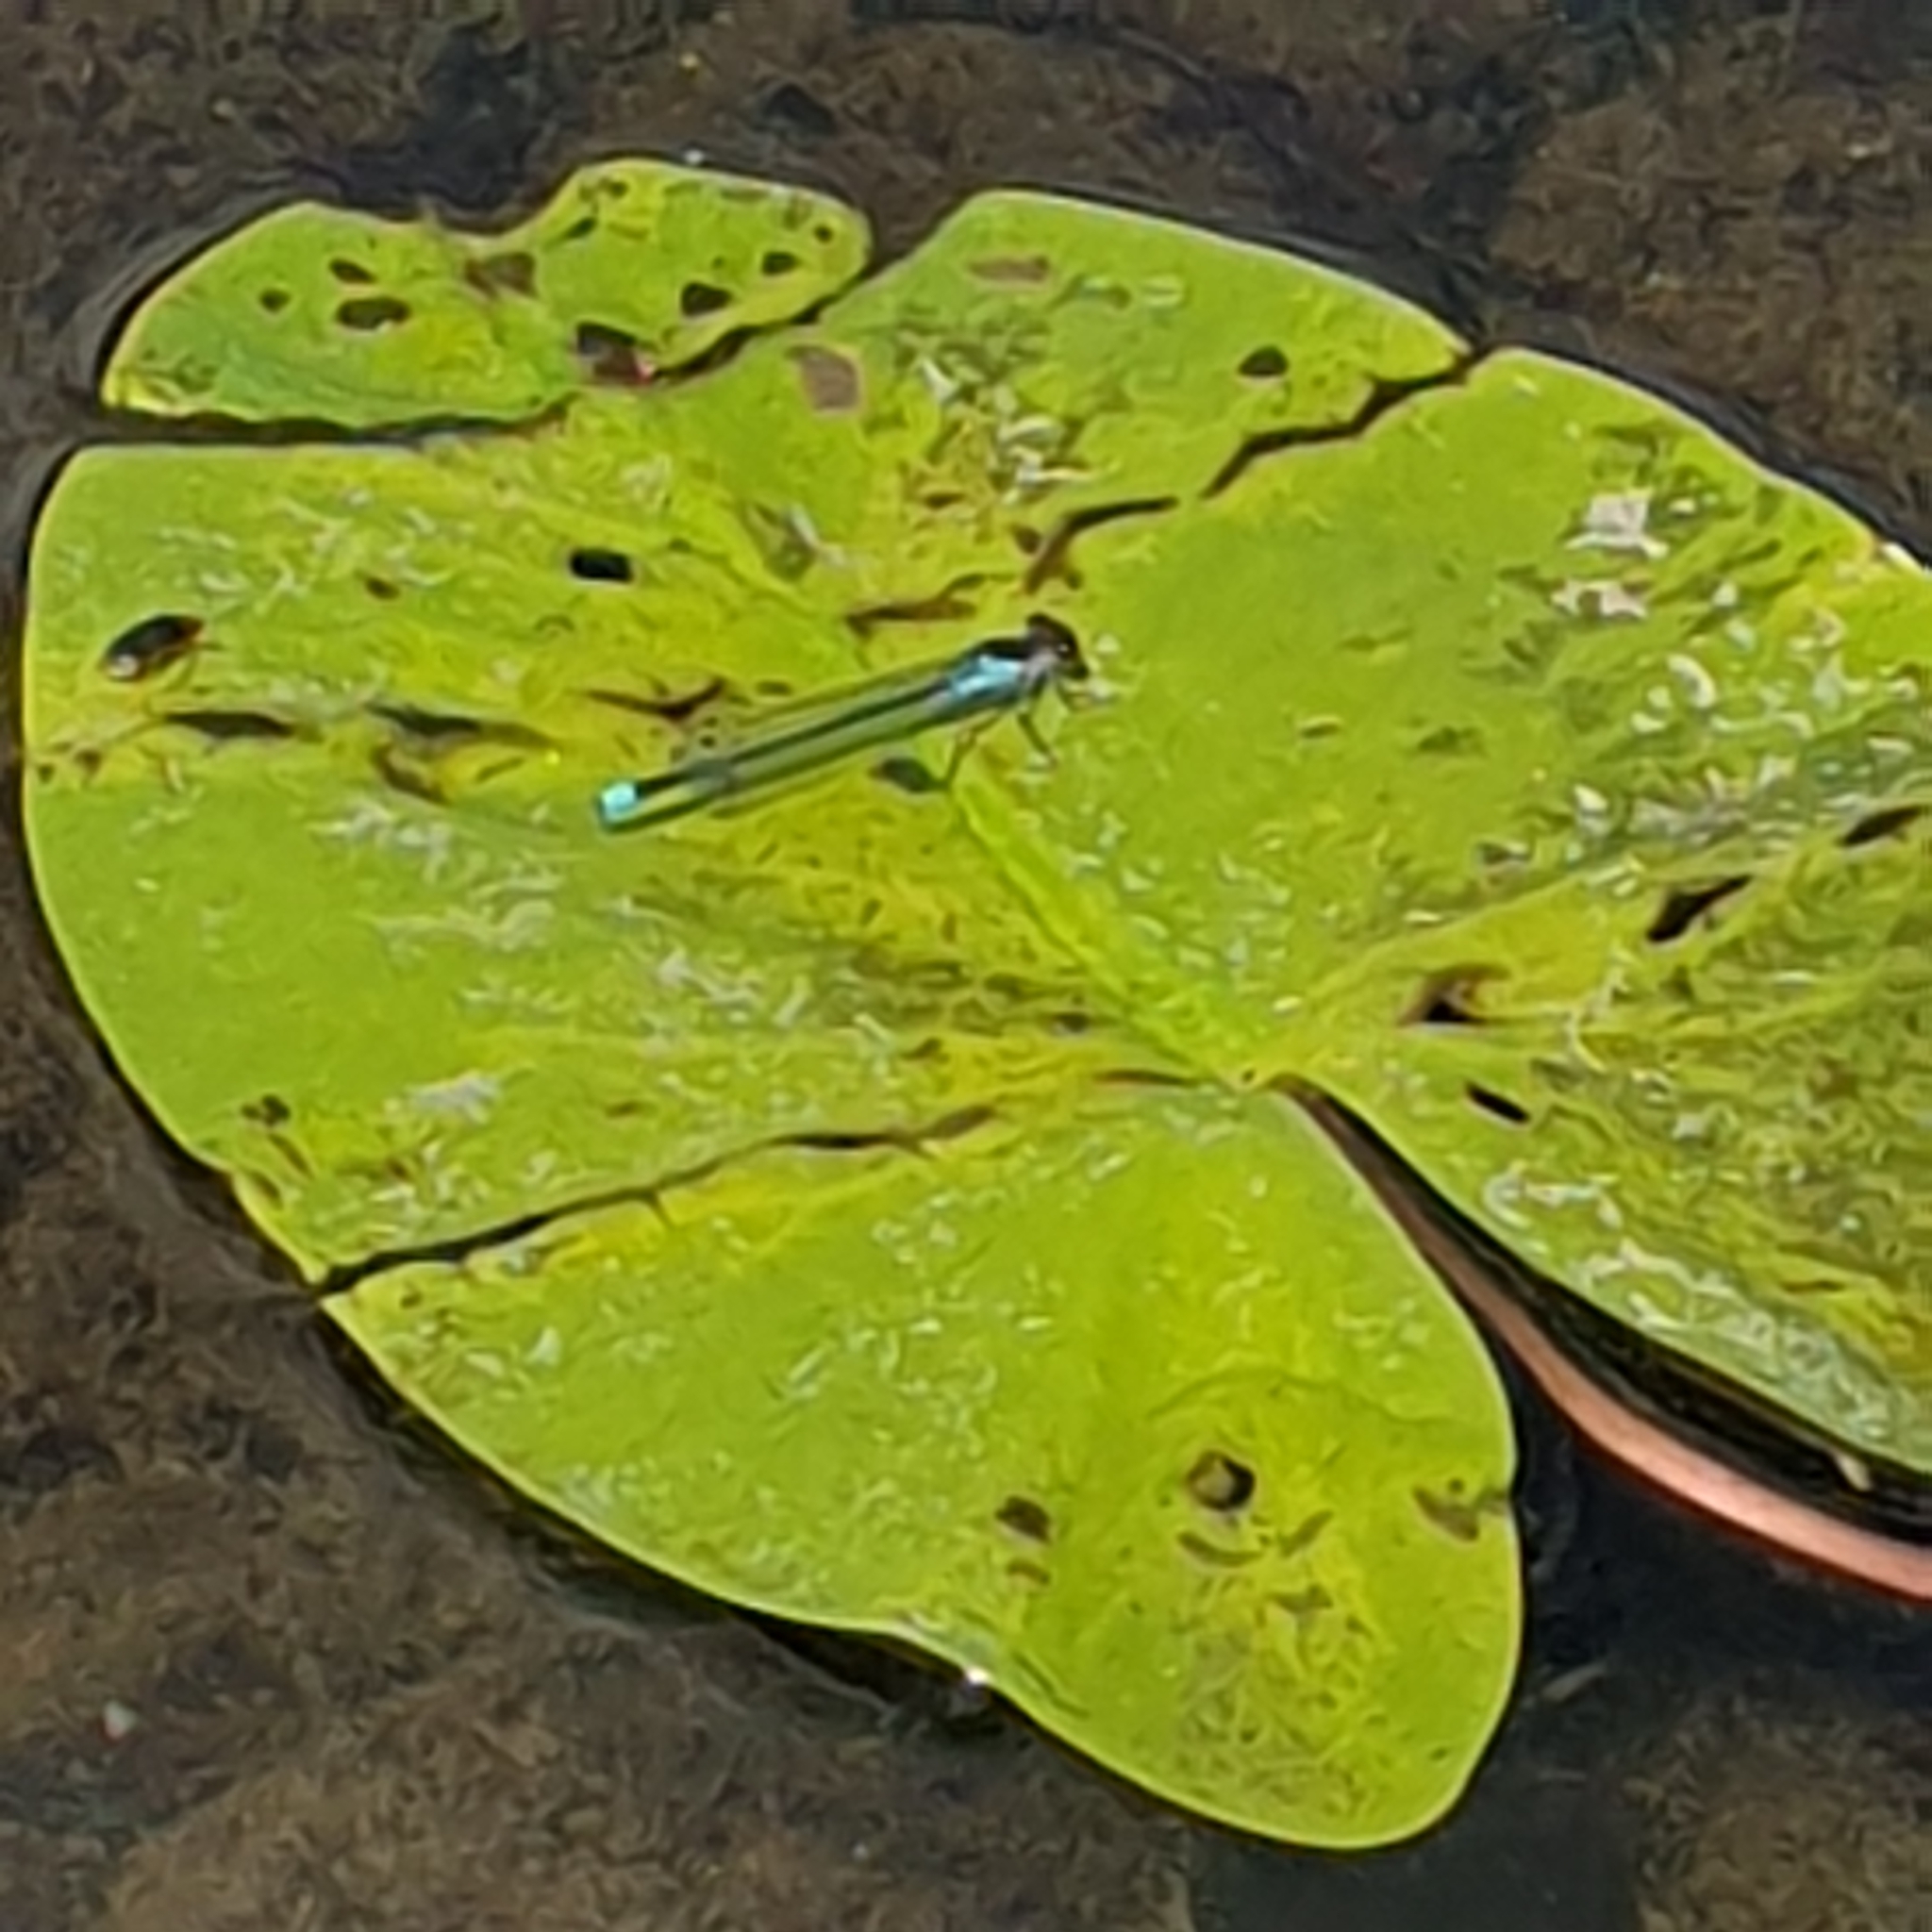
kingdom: Animalia
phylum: Arthropoda
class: Insecta
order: Odonata
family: Coenagrionidae
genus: Erythromma
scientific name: Erythromma najas
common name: Red-eyed damselfly
